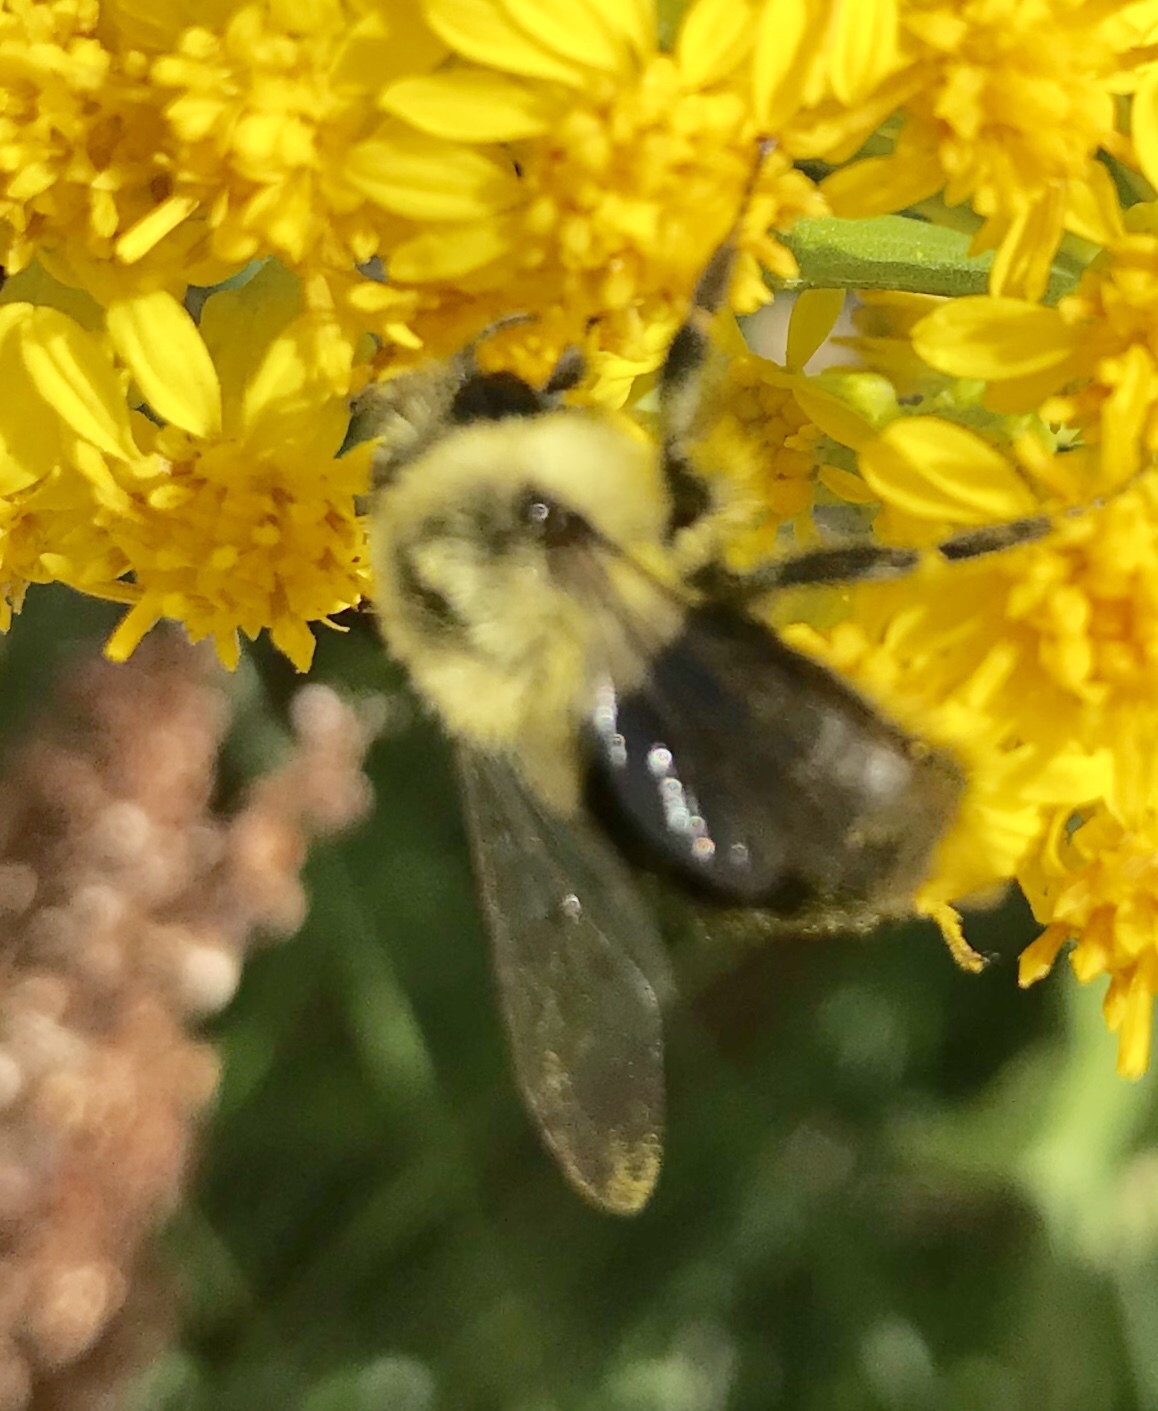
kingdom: Animalia
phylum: Arthropoda
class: Insecta
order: Hymenoptera
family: Apidae
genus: Bombus
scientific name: Bombus impatiens
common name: Common eastern bumble bee
